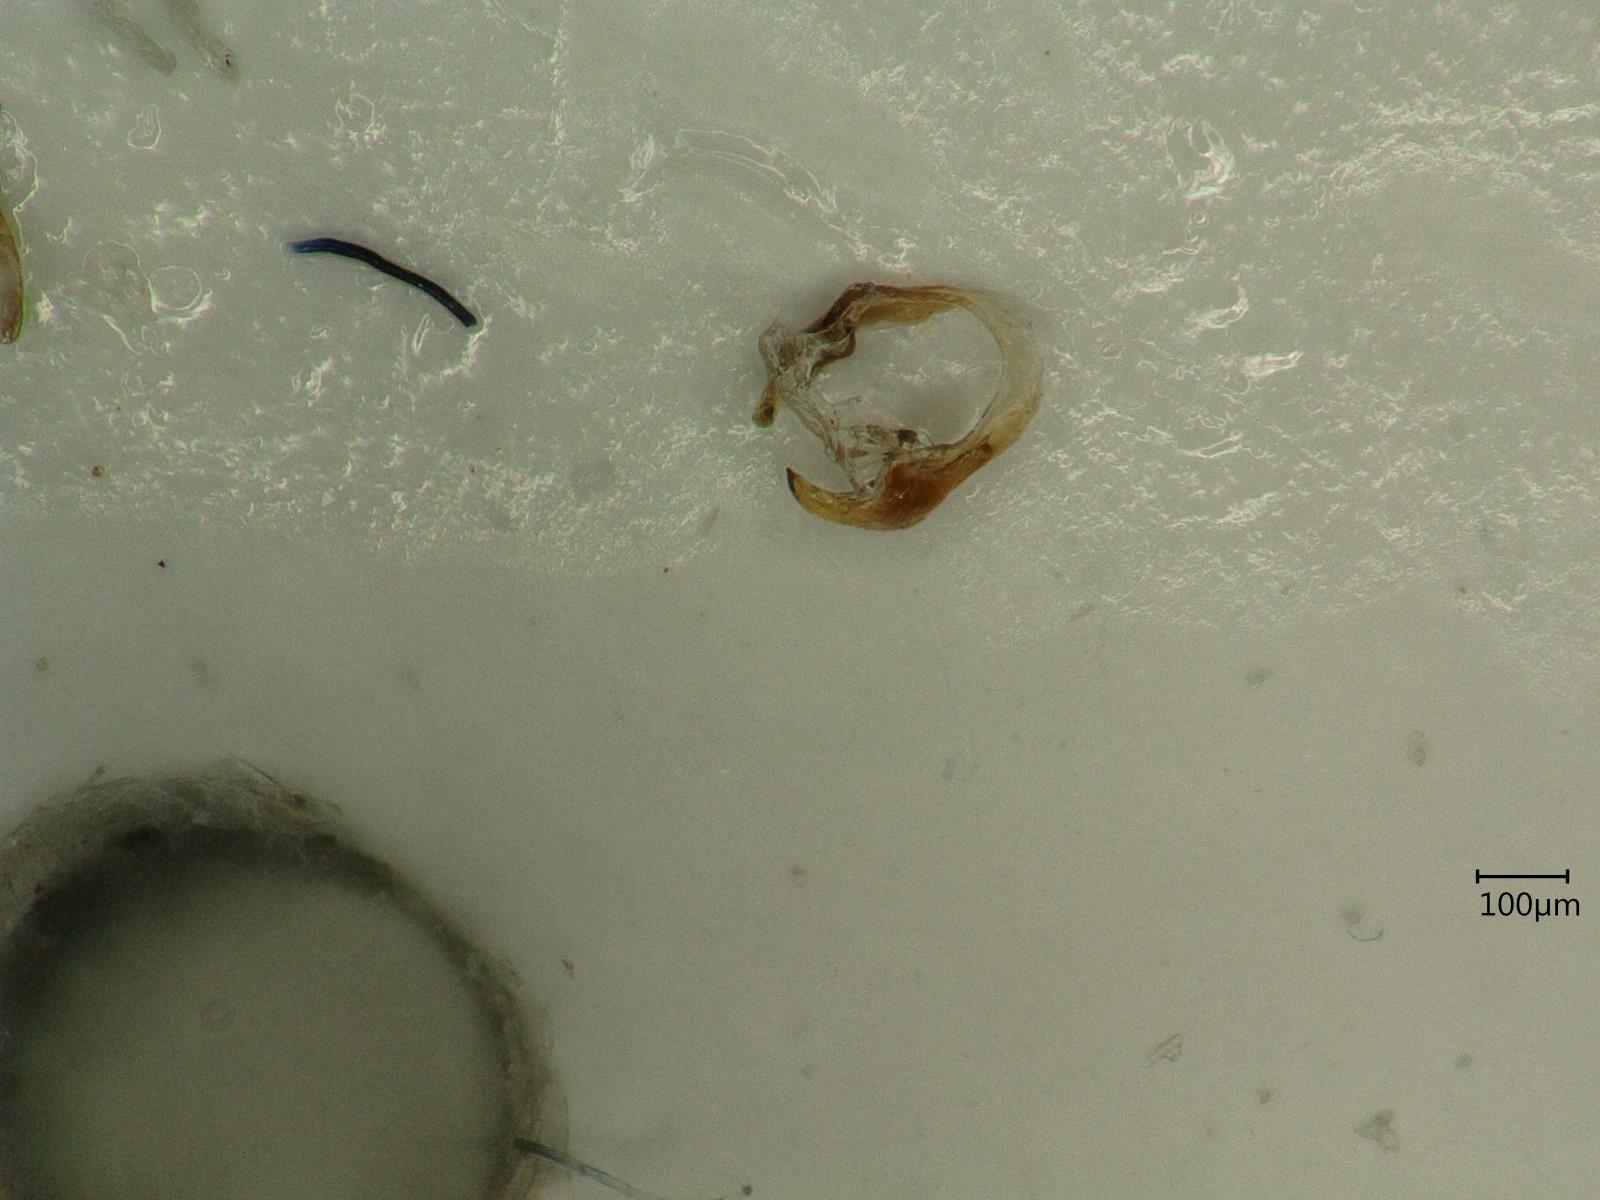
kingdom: Animalia
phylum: Arthropoda
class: Insecta
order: Hemiptera
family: Cicadellidae
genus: Kybos
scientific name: Kybos strobli
